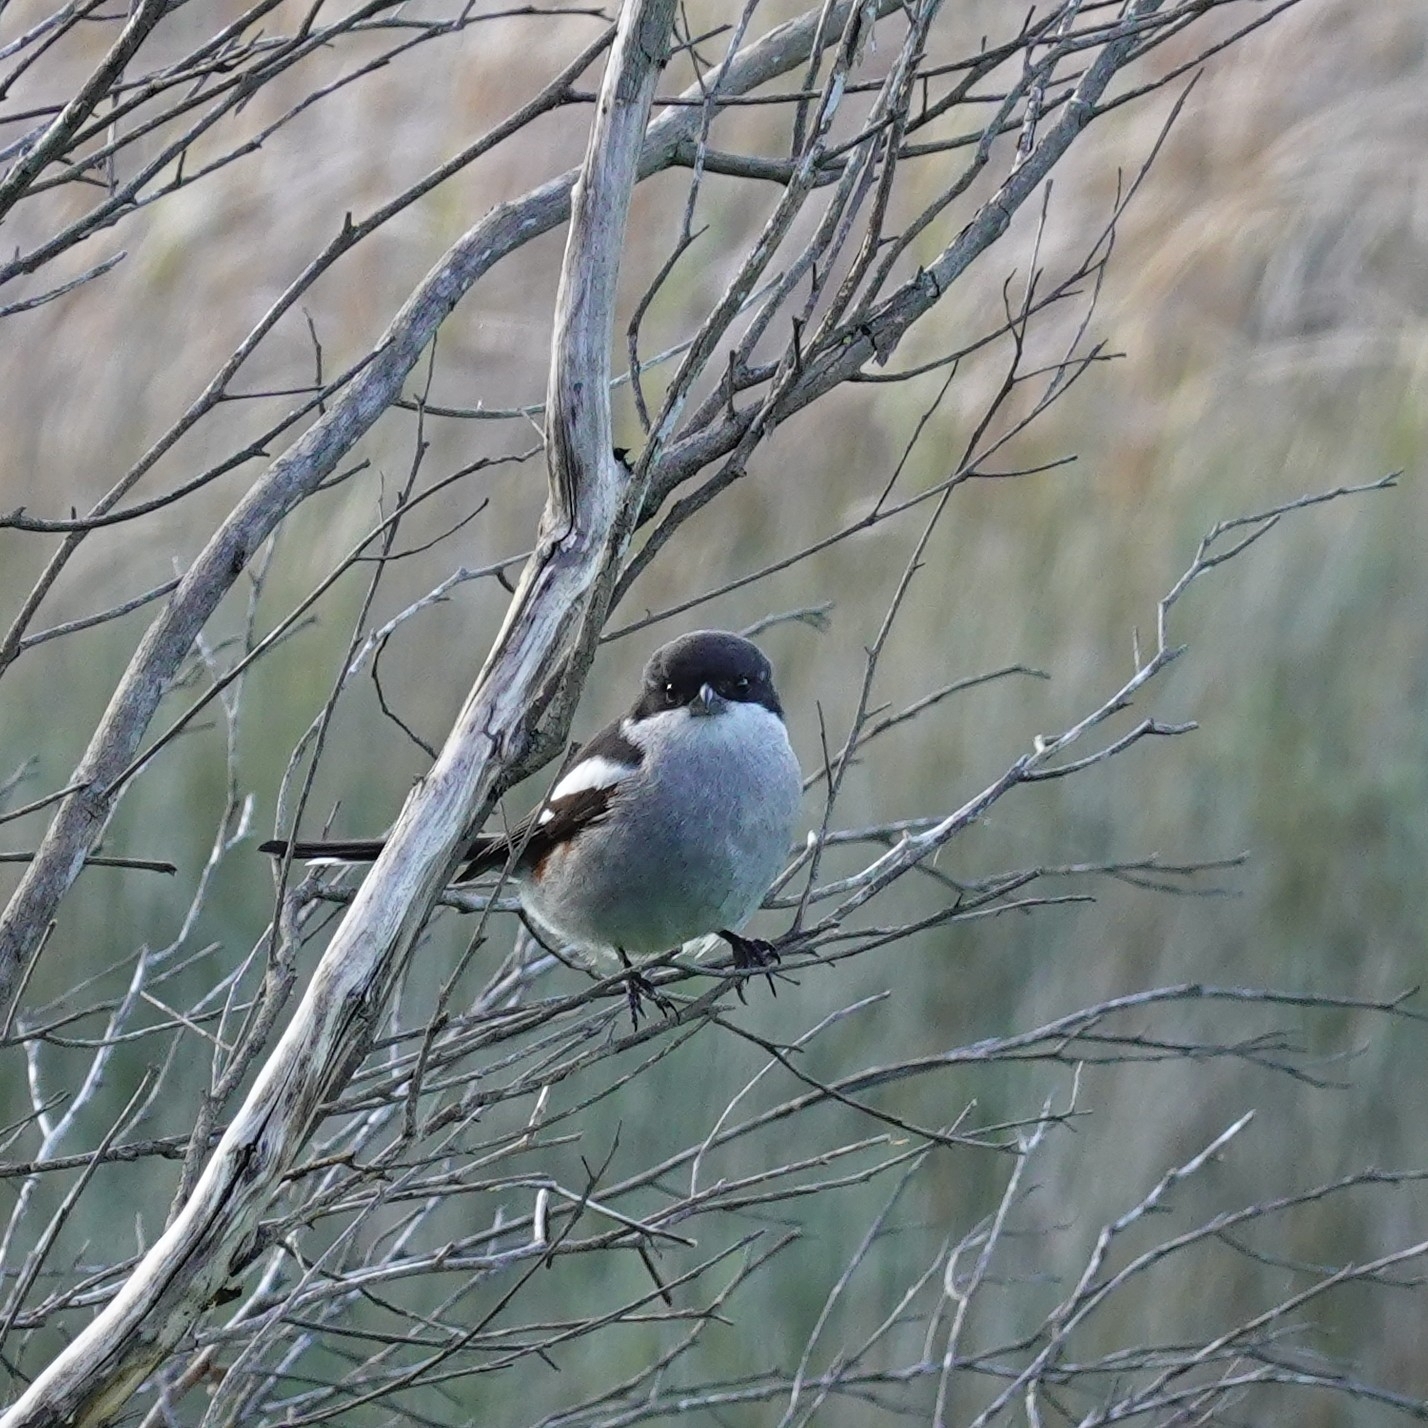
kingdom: Animalia
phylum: Chordata
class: Aves
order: Passeriformes
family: Laniidae
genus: Lanius
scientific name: Lanius collaris
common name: Southern fiscal
